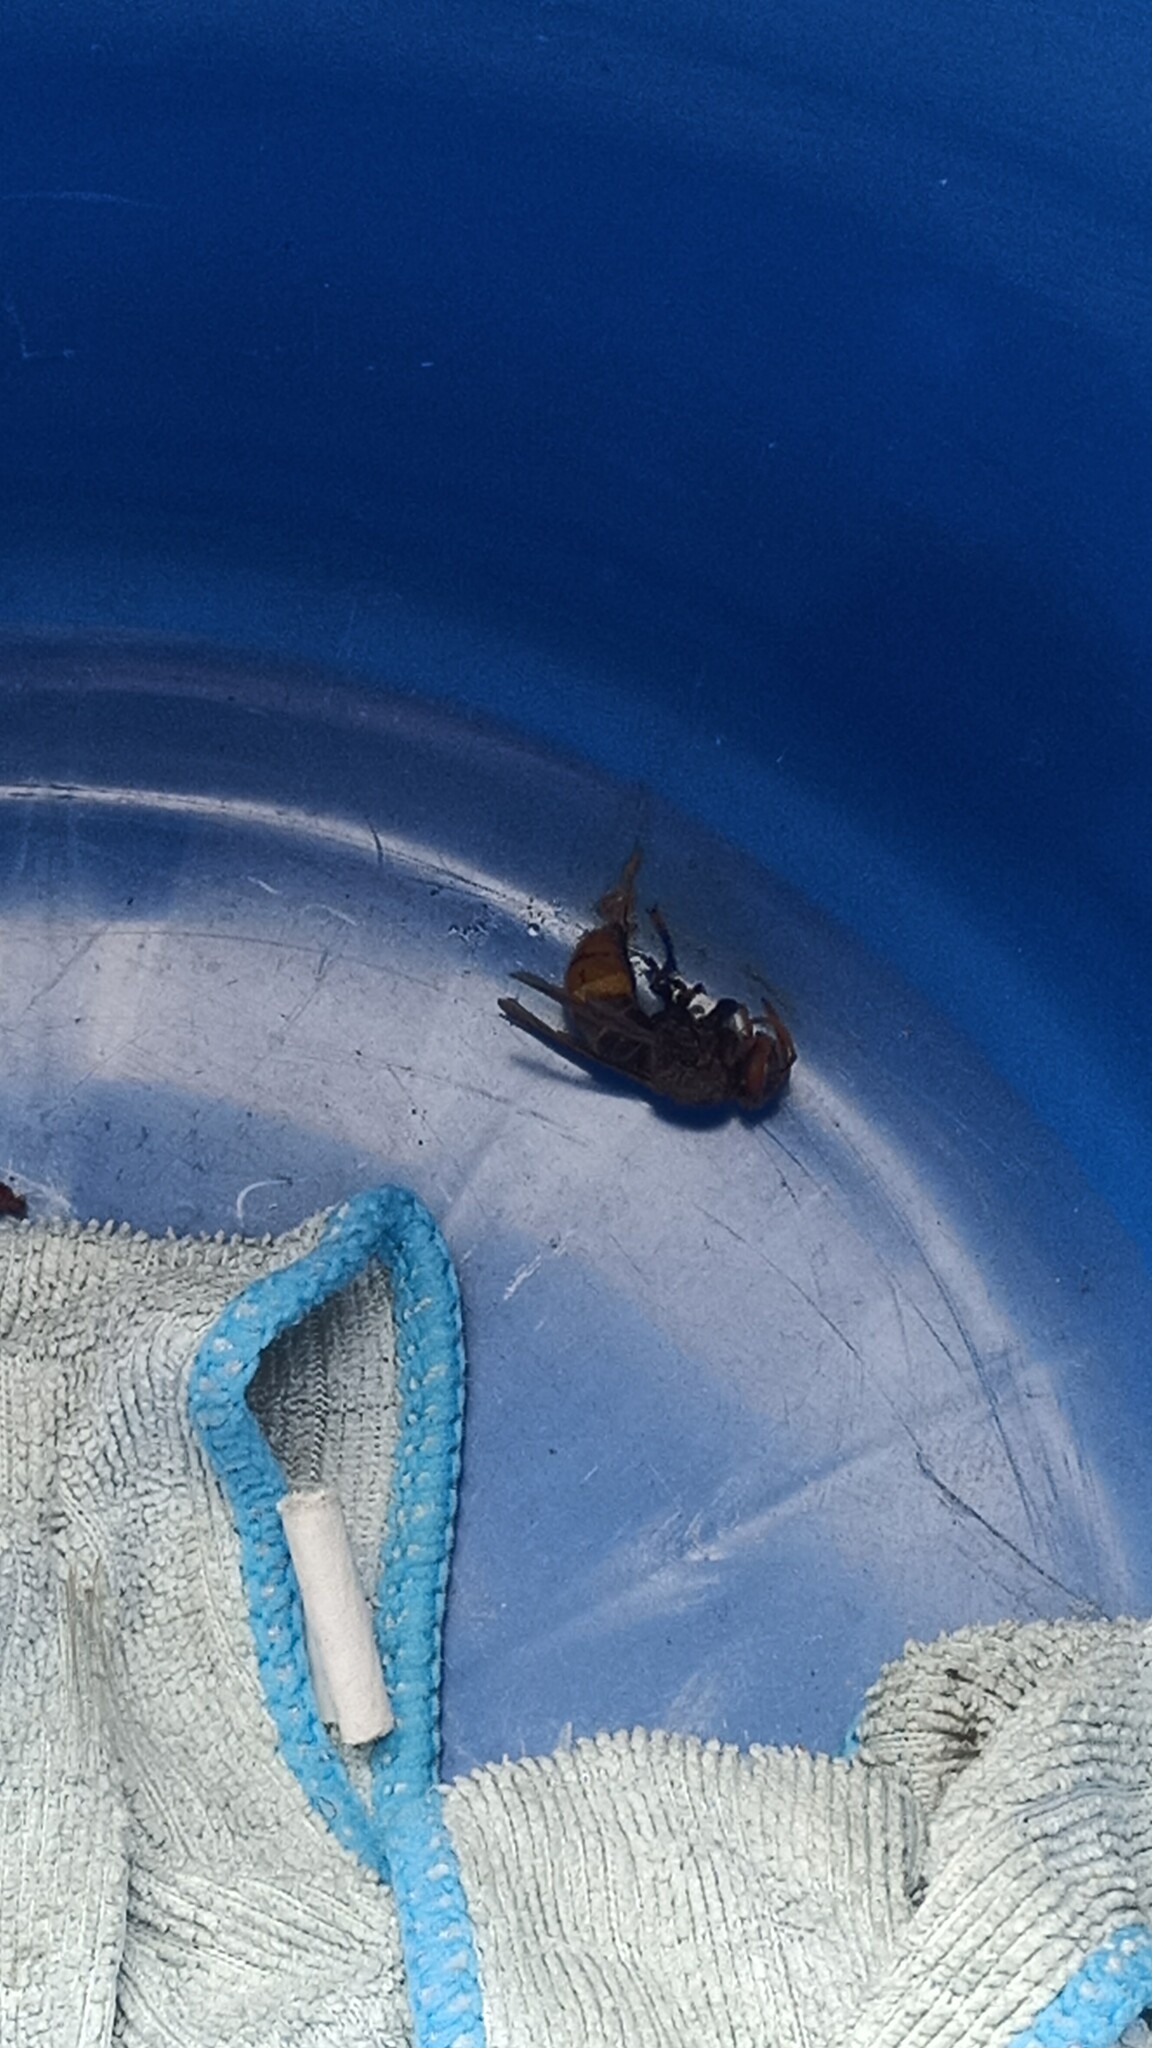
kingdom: Animalia
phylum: Arthropoda
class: Insecta
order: Hymenoptera
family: Vespidae
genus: Vespa
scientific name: Vespa crabro
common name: Hornet
